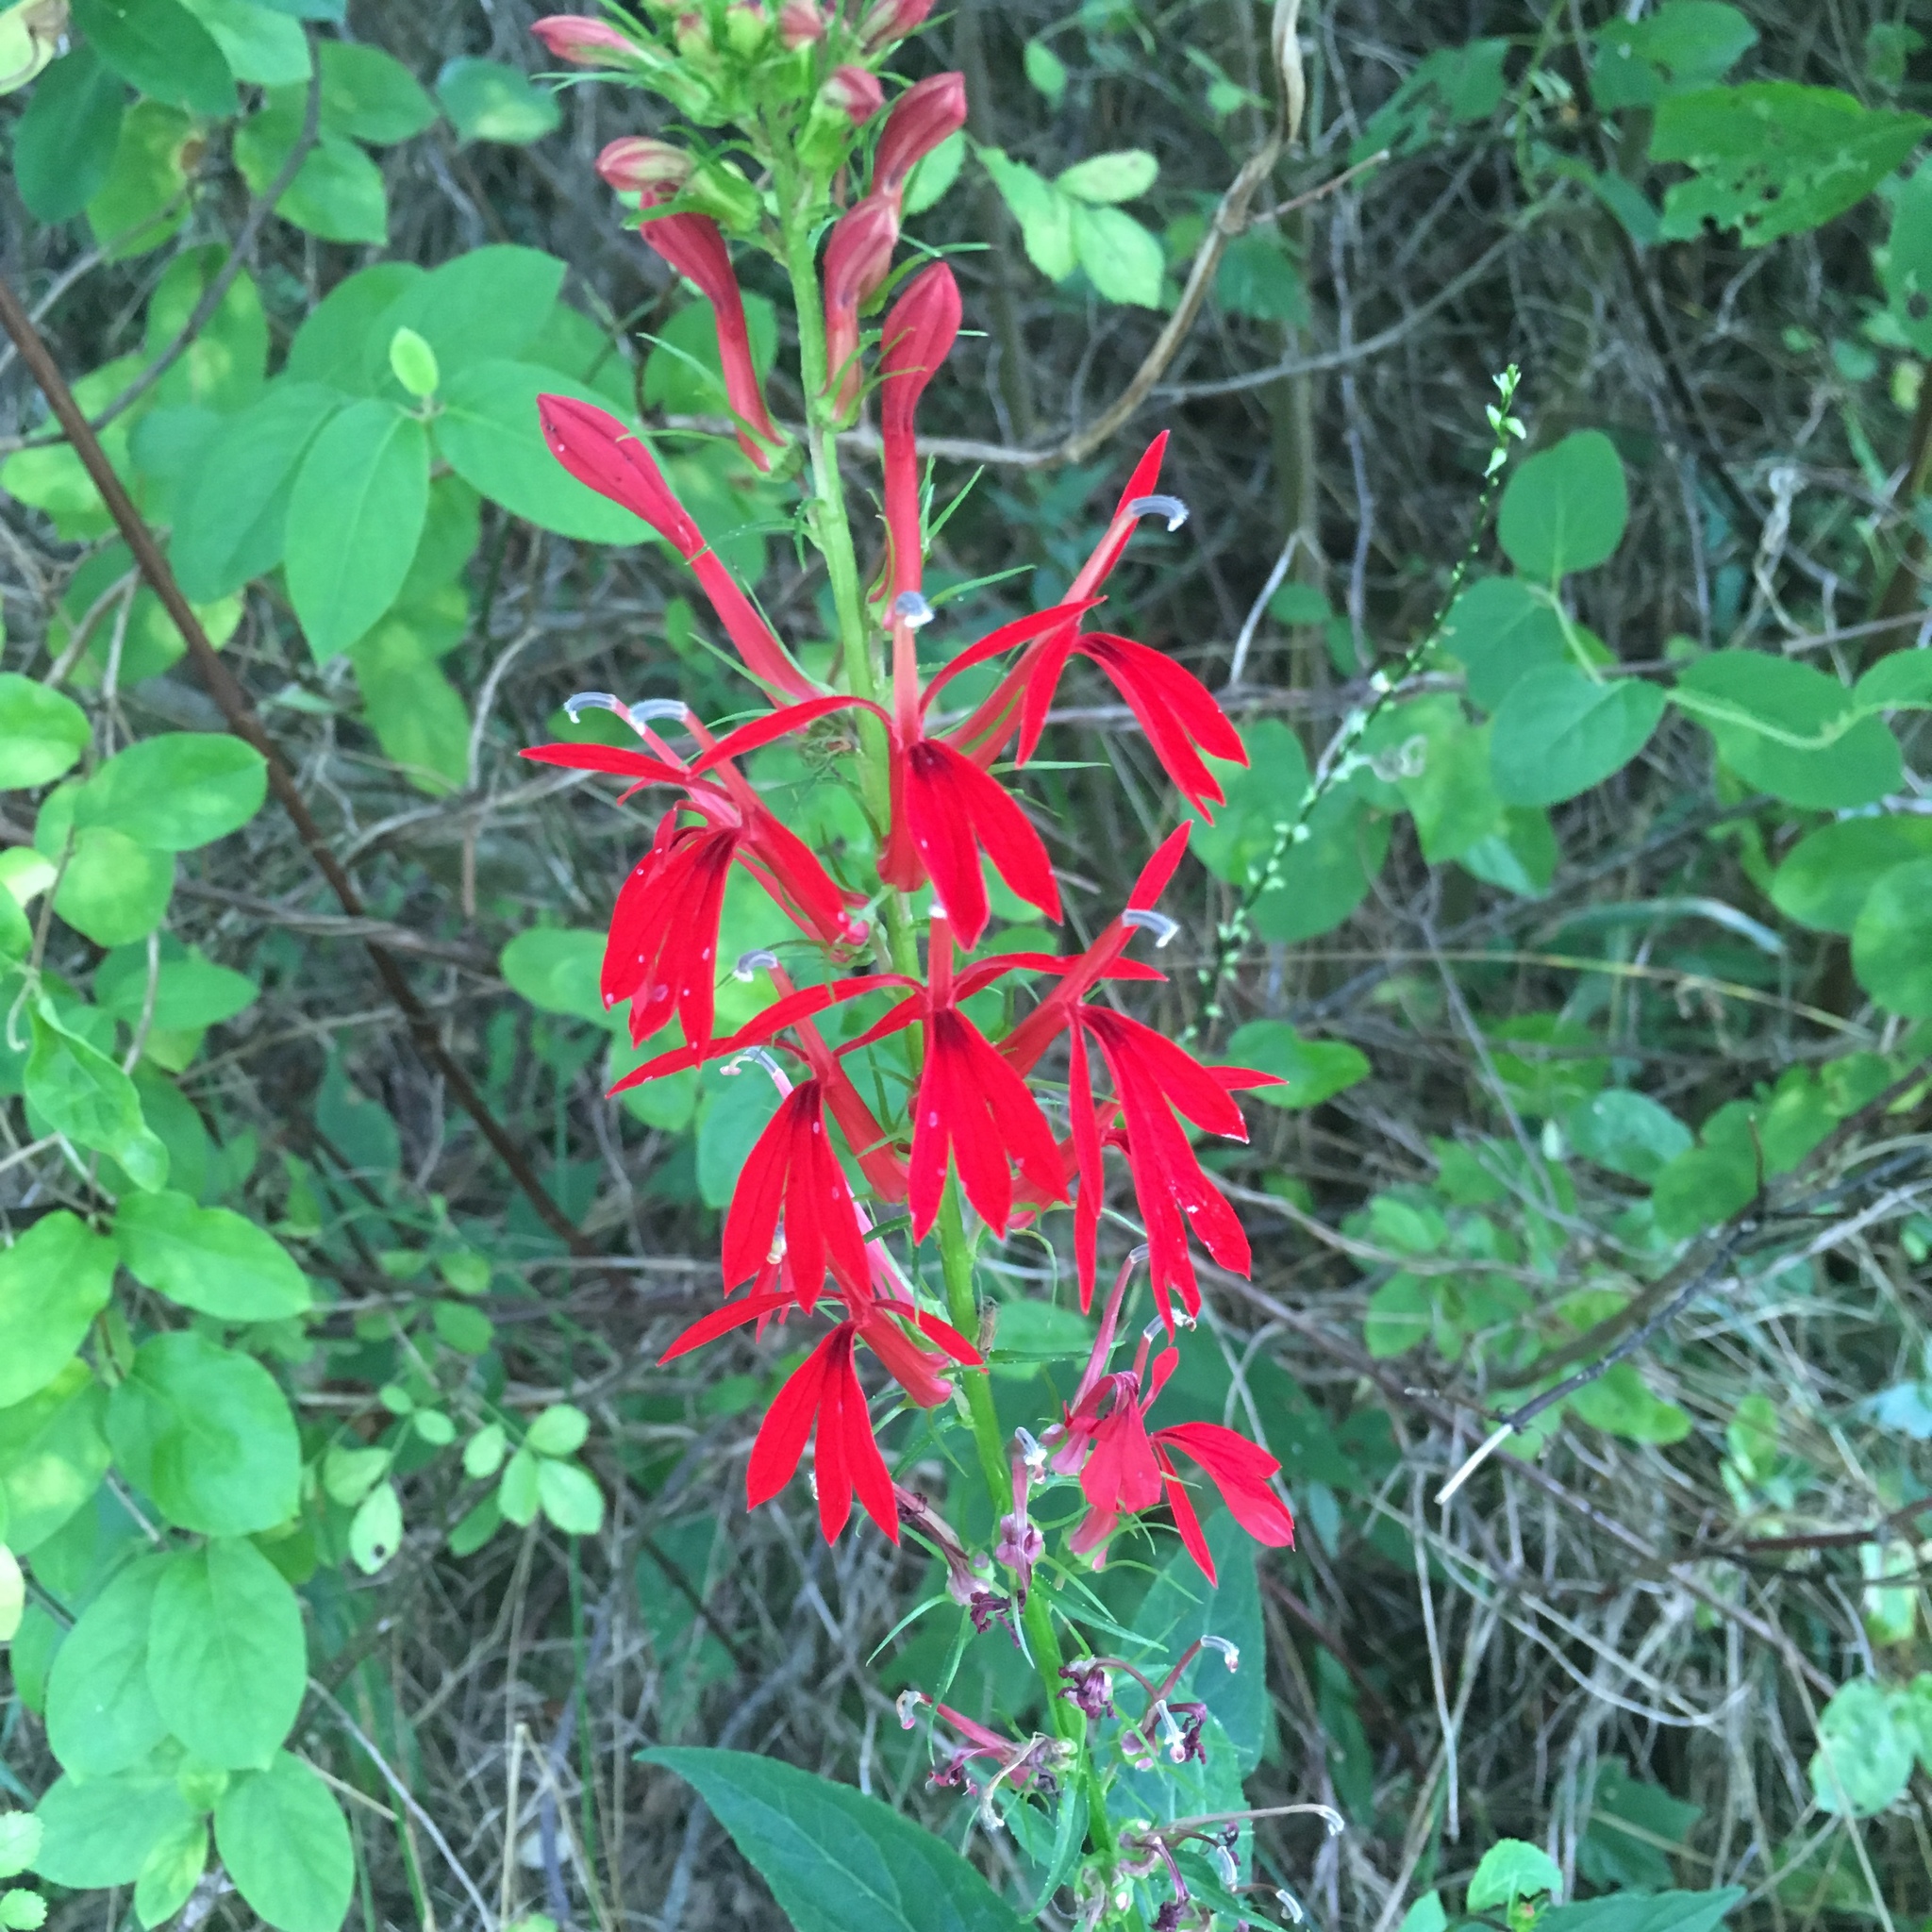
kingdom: Plantae
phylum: Tracheophyta
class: Magnoliopsida
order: Asterales
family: Campanulaceae
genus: Lobelia
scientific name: Lobelia cardinalis
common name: Cardinal flower
